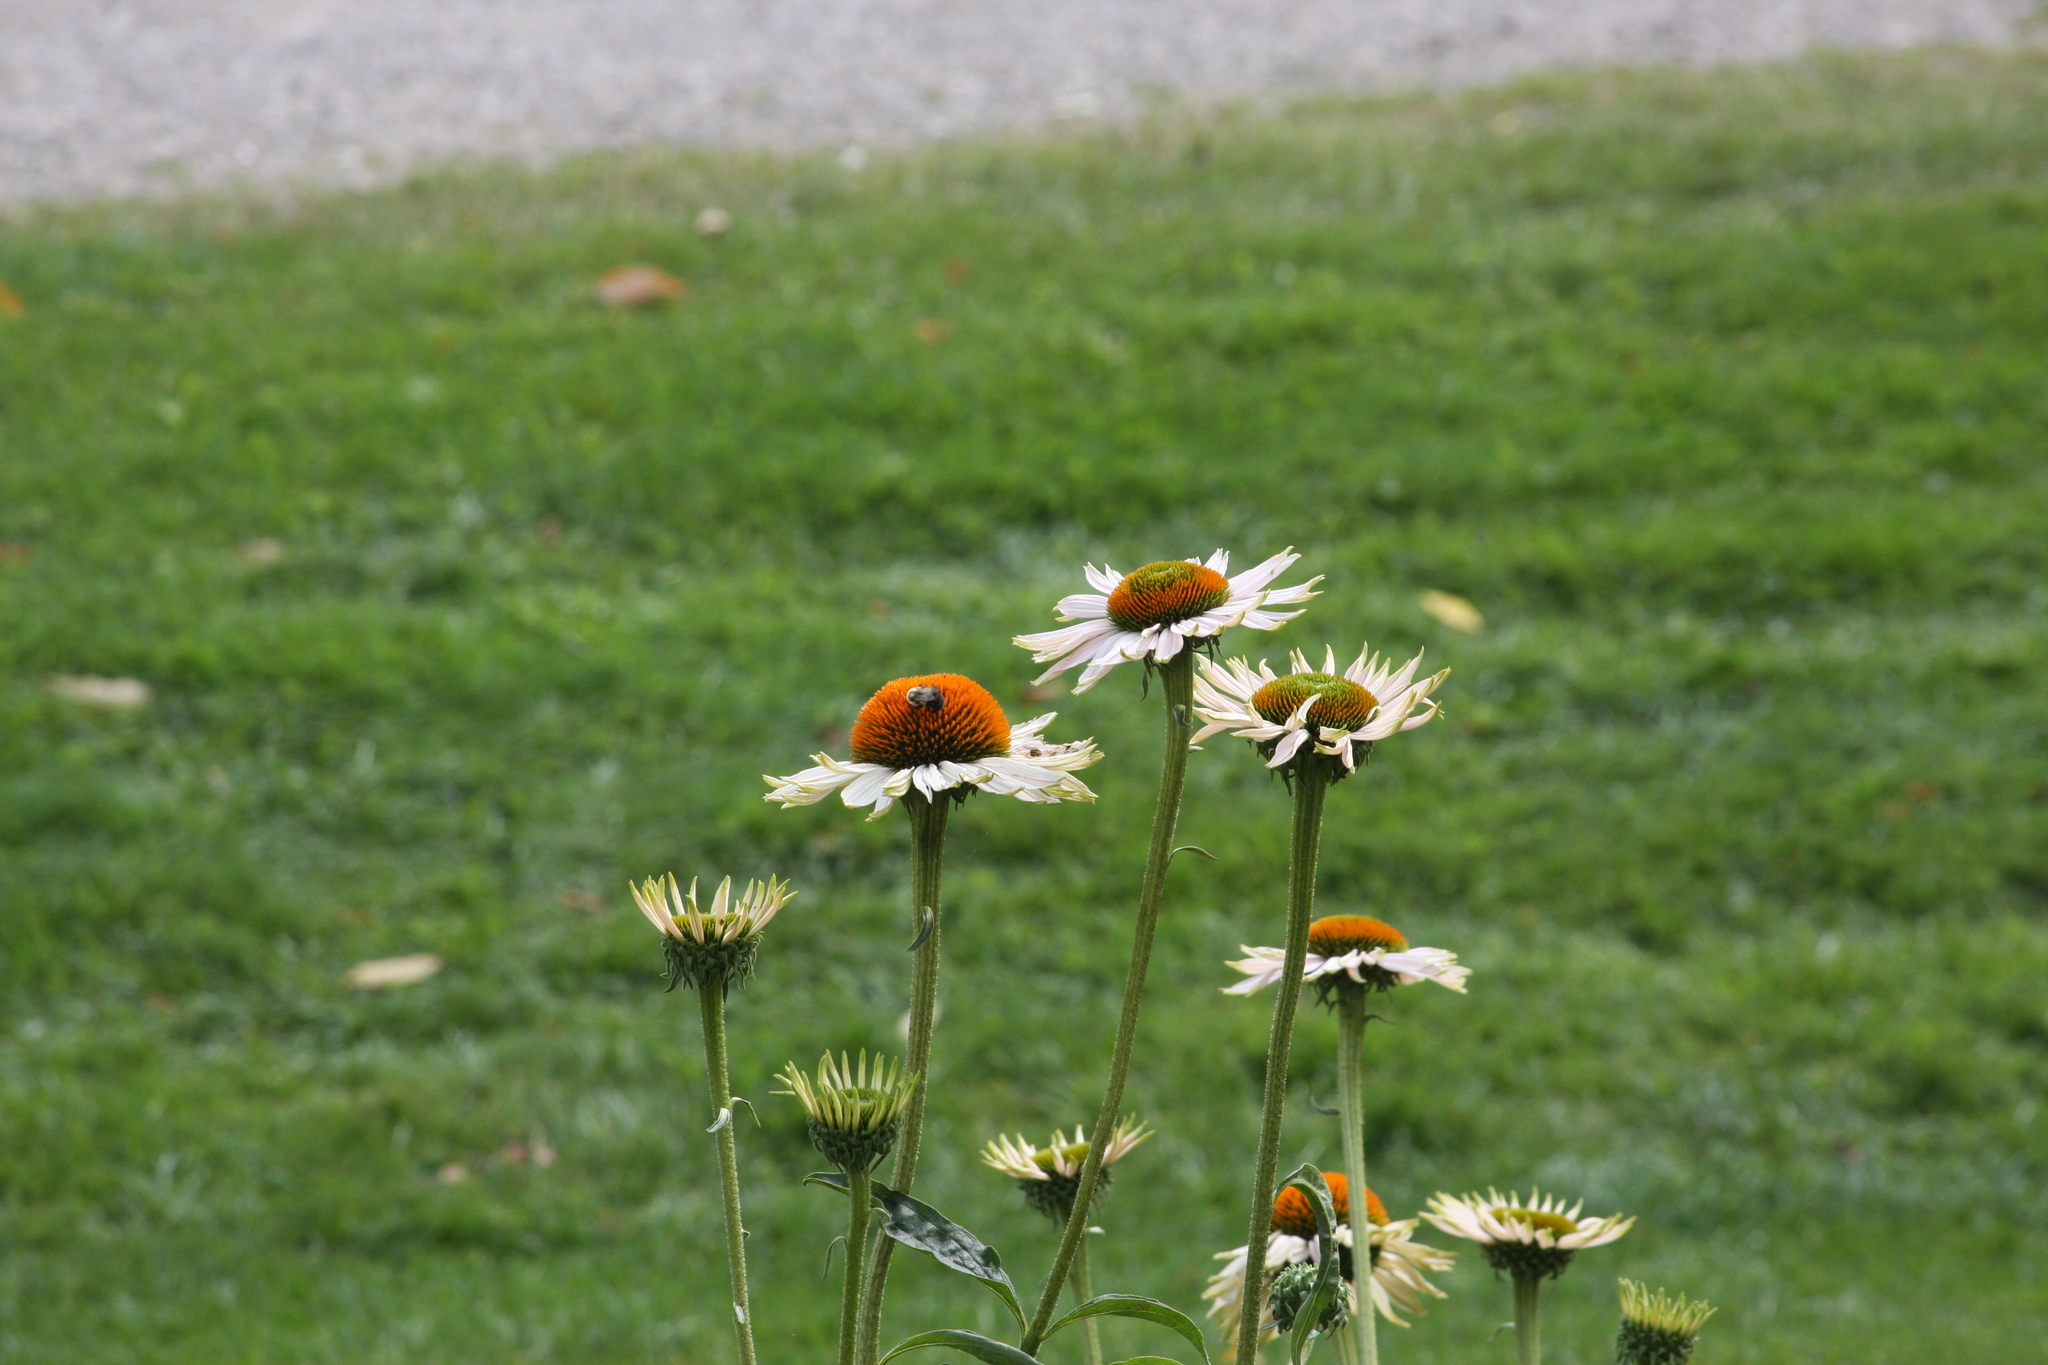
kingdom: Animalia
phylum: Arthropoda
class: Insecta
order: Hymenoptera
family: Apidae
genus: Bombus
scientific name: Bombus impatiens
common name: Common eastern bumble bee
